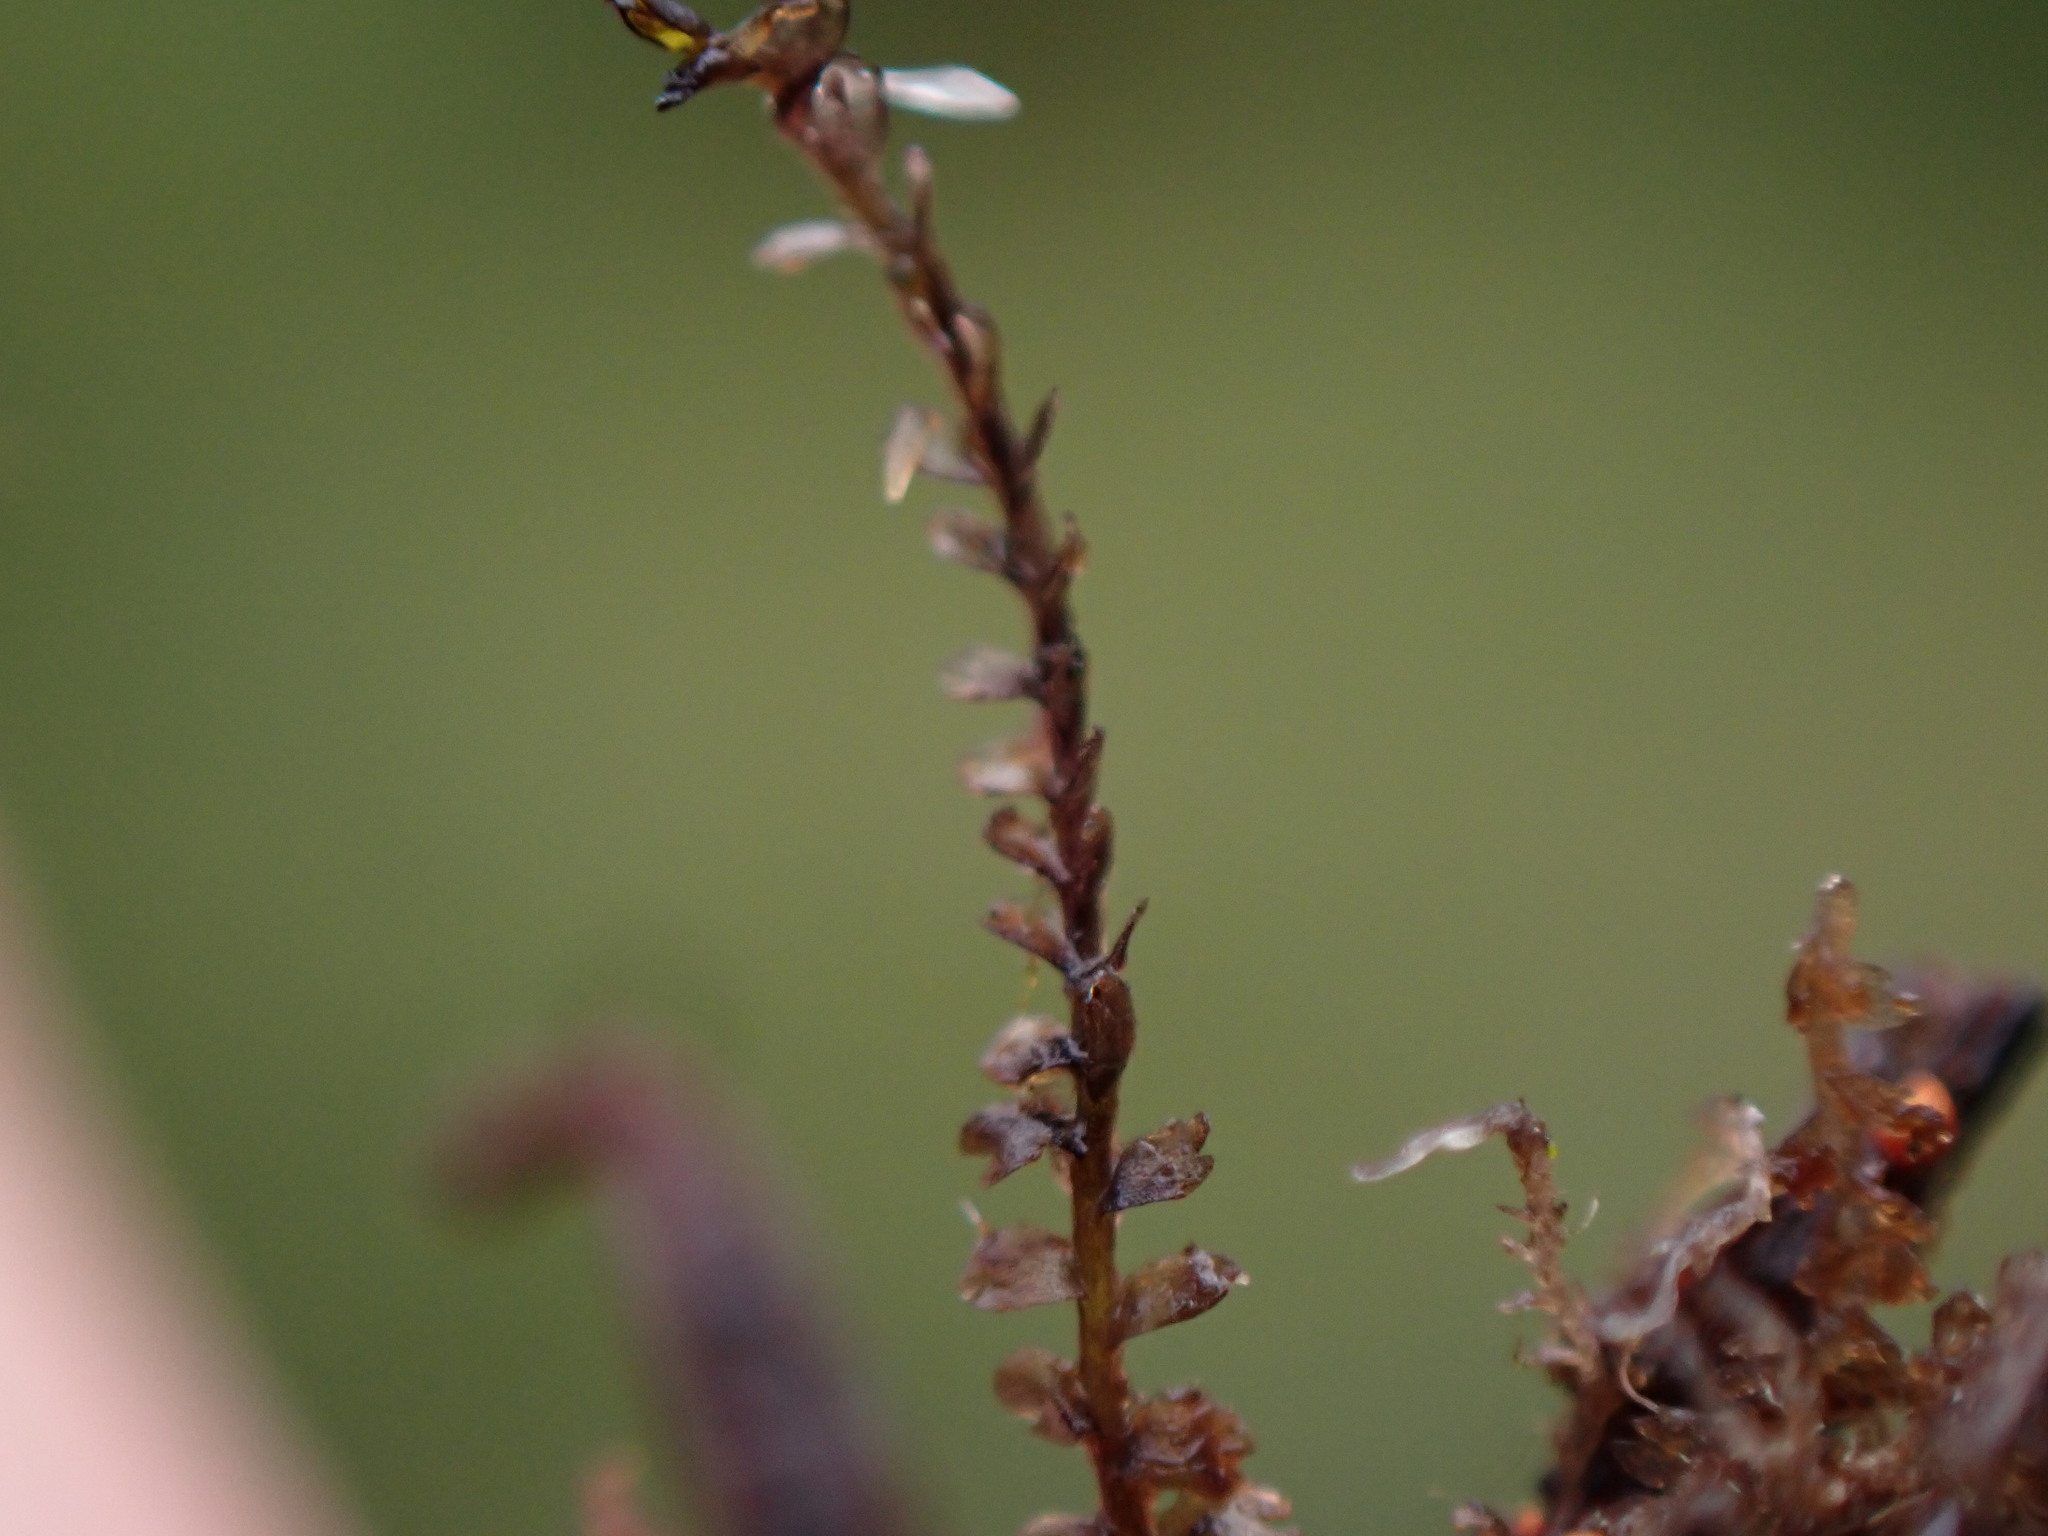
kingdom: Plantae
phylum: Marchantiophyta
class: Jungermanniopsida
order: Jungermanniales
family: Anastrophyllaceae
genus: Gymnocolea
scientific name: Gymnocolea inflata
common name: Inflated notchwort
